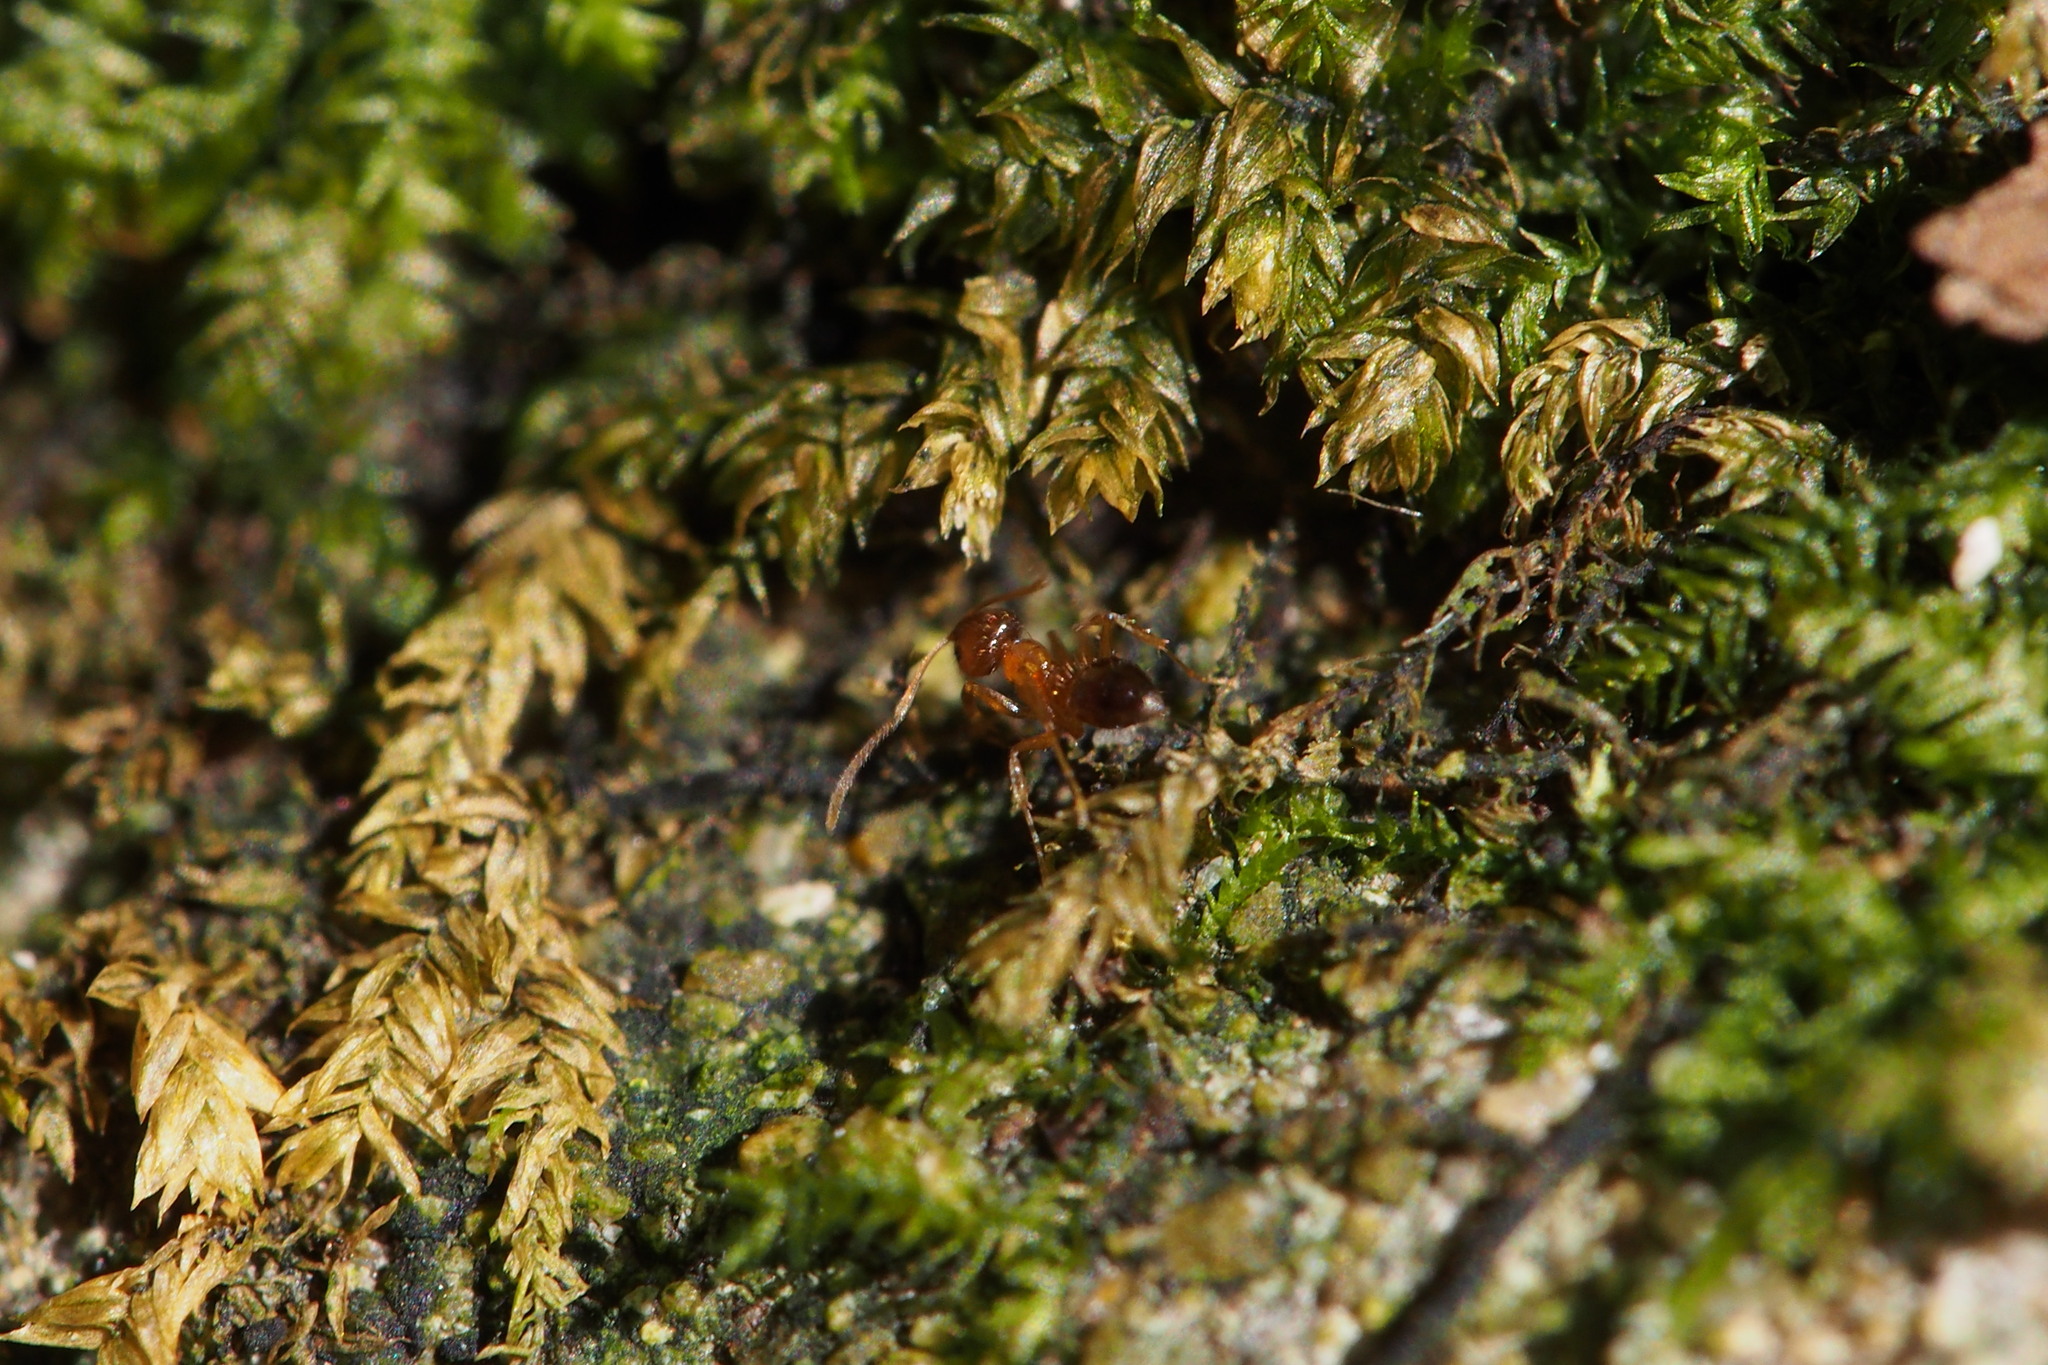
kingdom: Animalia
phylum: Arthropoda
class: Insecta
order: Hymenoptera
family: Formicidae
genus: Paratrechina
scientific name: Paratrechina flavipes
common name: Eastern asian formicine ant
